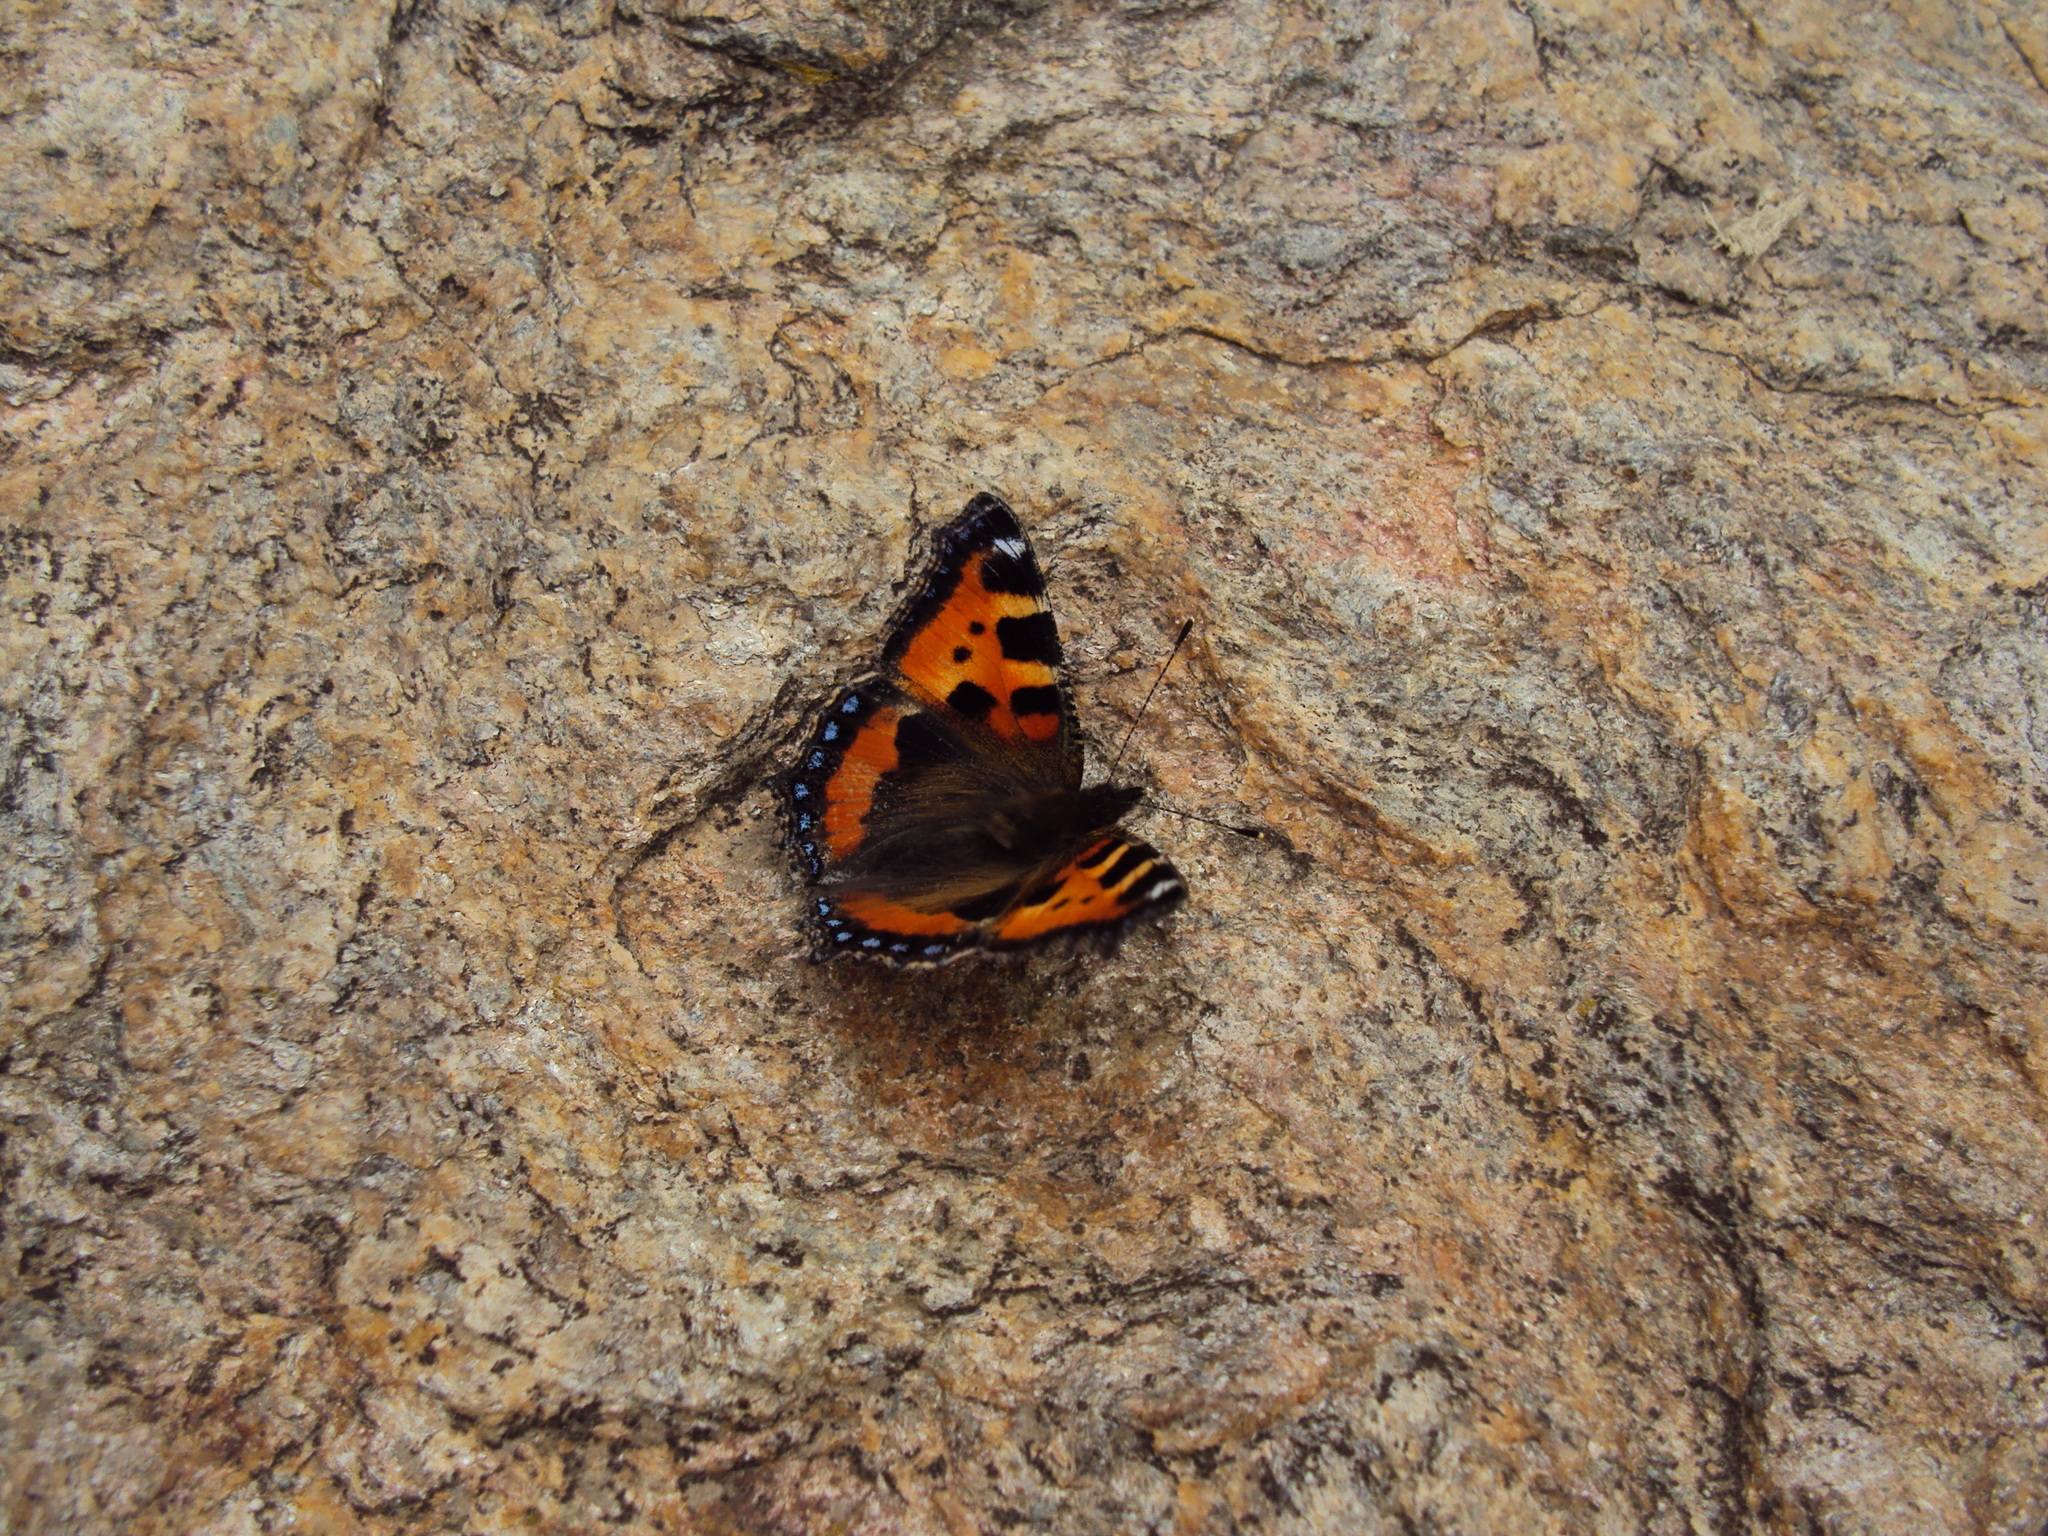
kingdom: Animalia
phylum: Arthropoda
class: Insecta
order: Lepidoptera
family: Nymphalidae
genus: Aglais
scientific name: Aglais urticae
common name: Small tortoiseshell
